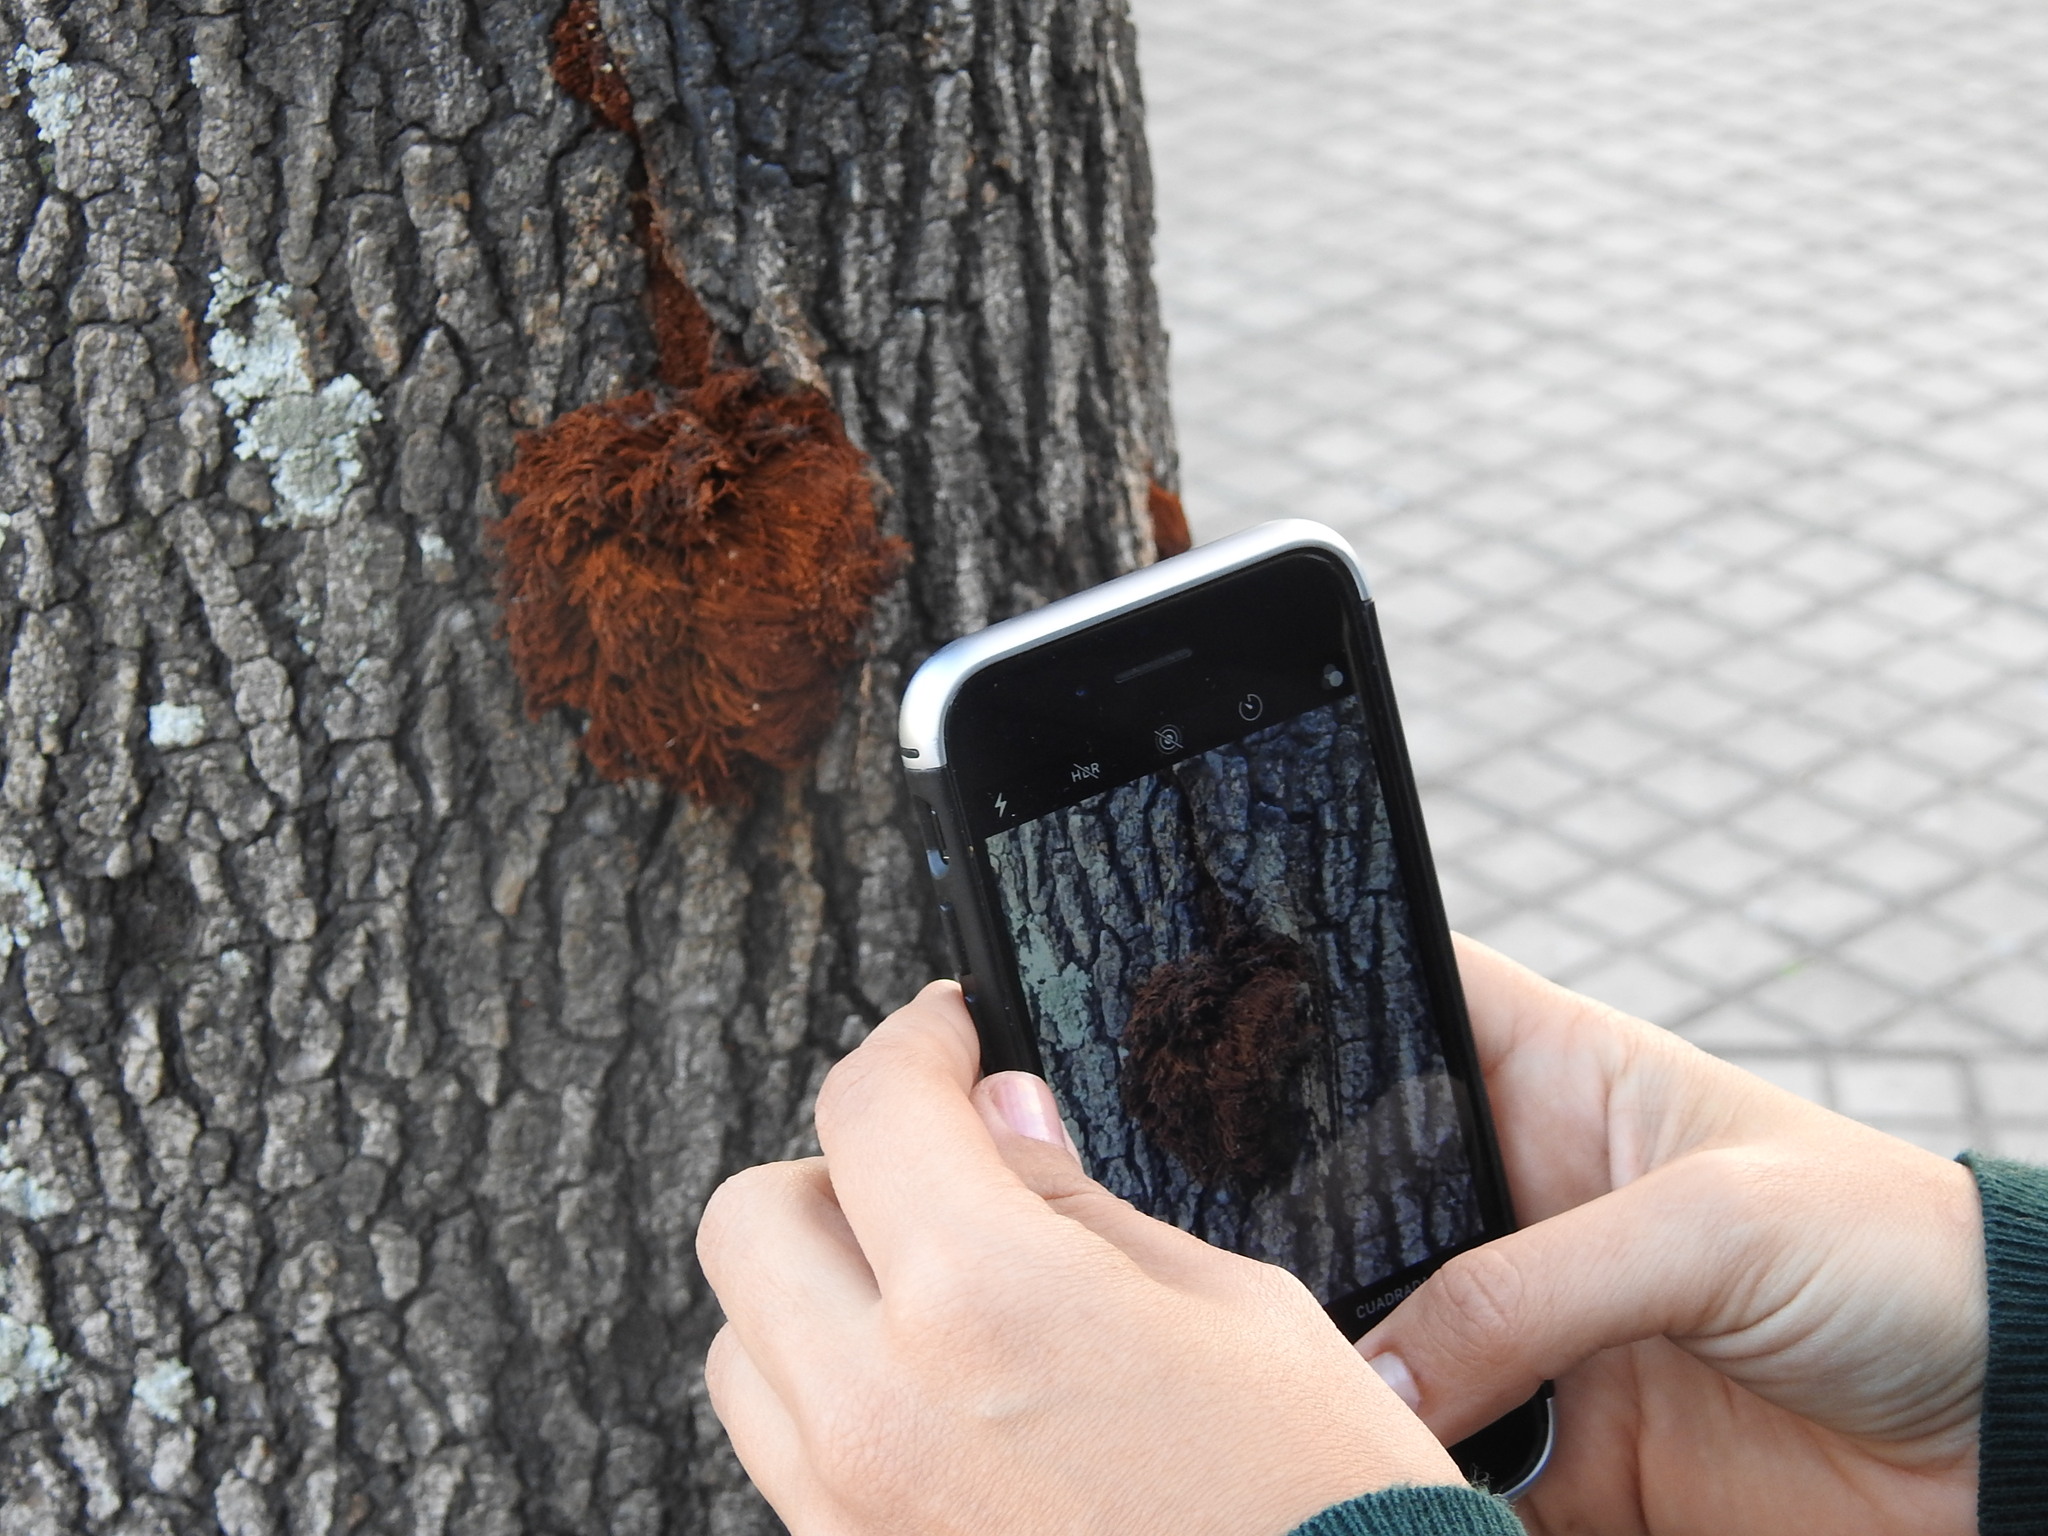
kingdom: Fungi
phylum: Basidiomycota
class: Agaricomycetes
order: Hymenochaetales
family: Hymenochaetaceae
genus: Inonotus
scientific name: Inonotus rickii
